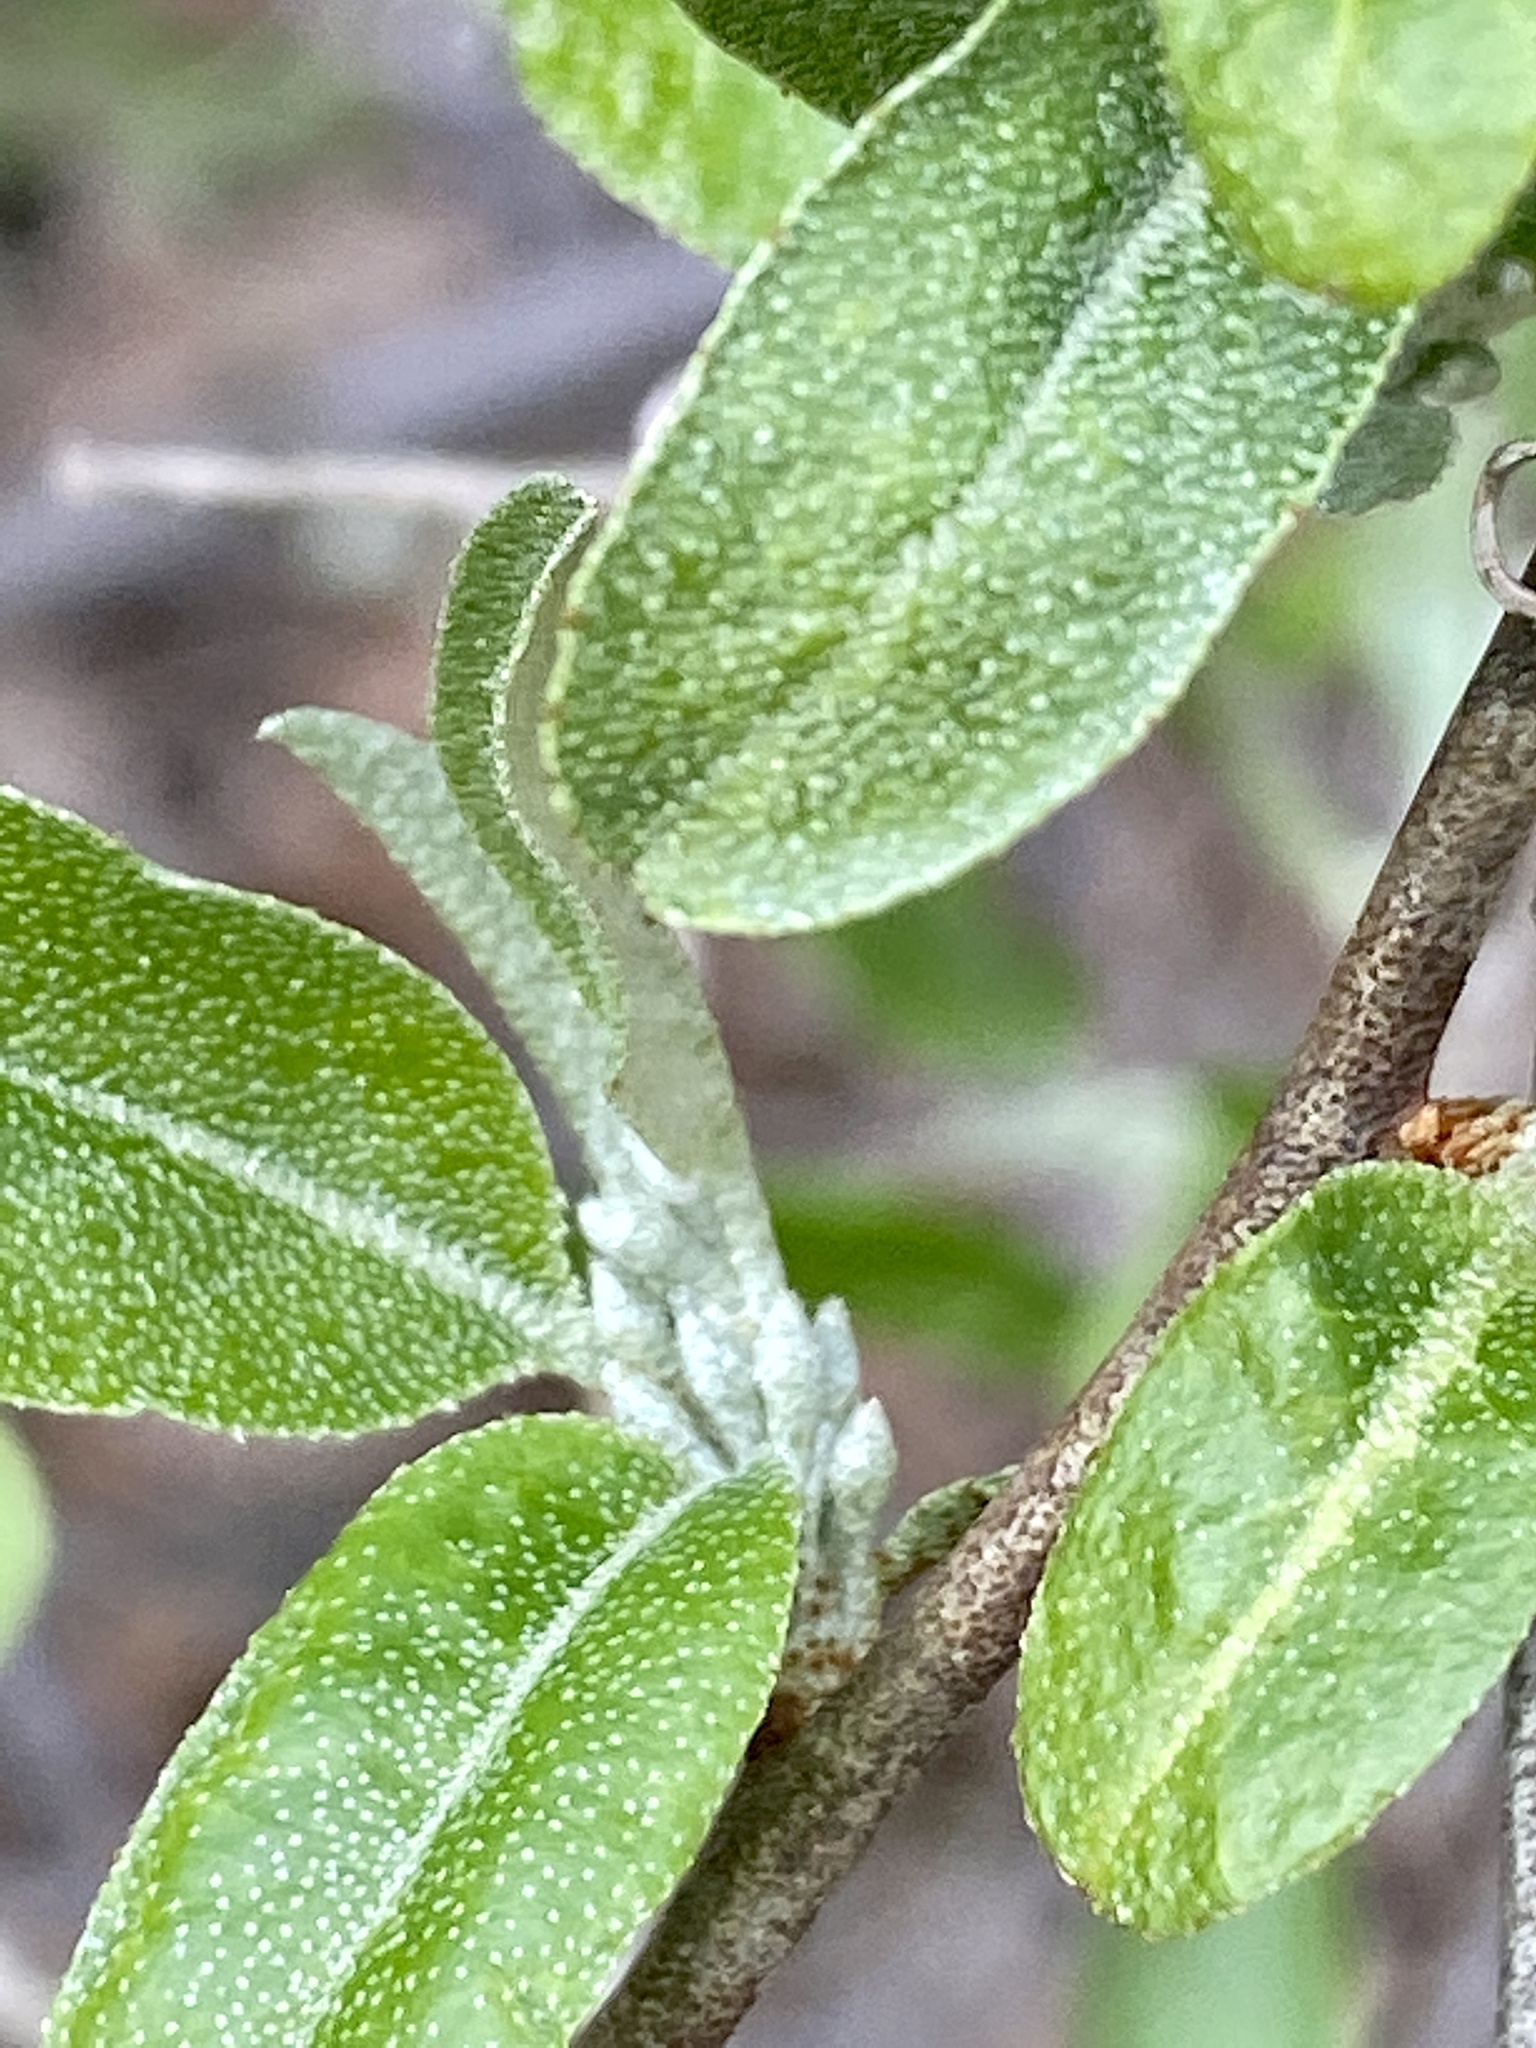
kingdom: Plantae
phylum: Tracheophyta
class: Magnoliopsida
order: Rosales
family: Elaeagnaceae
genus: Elaeagnus
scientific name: Elaeagnus umbellata
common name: Autumn olive
